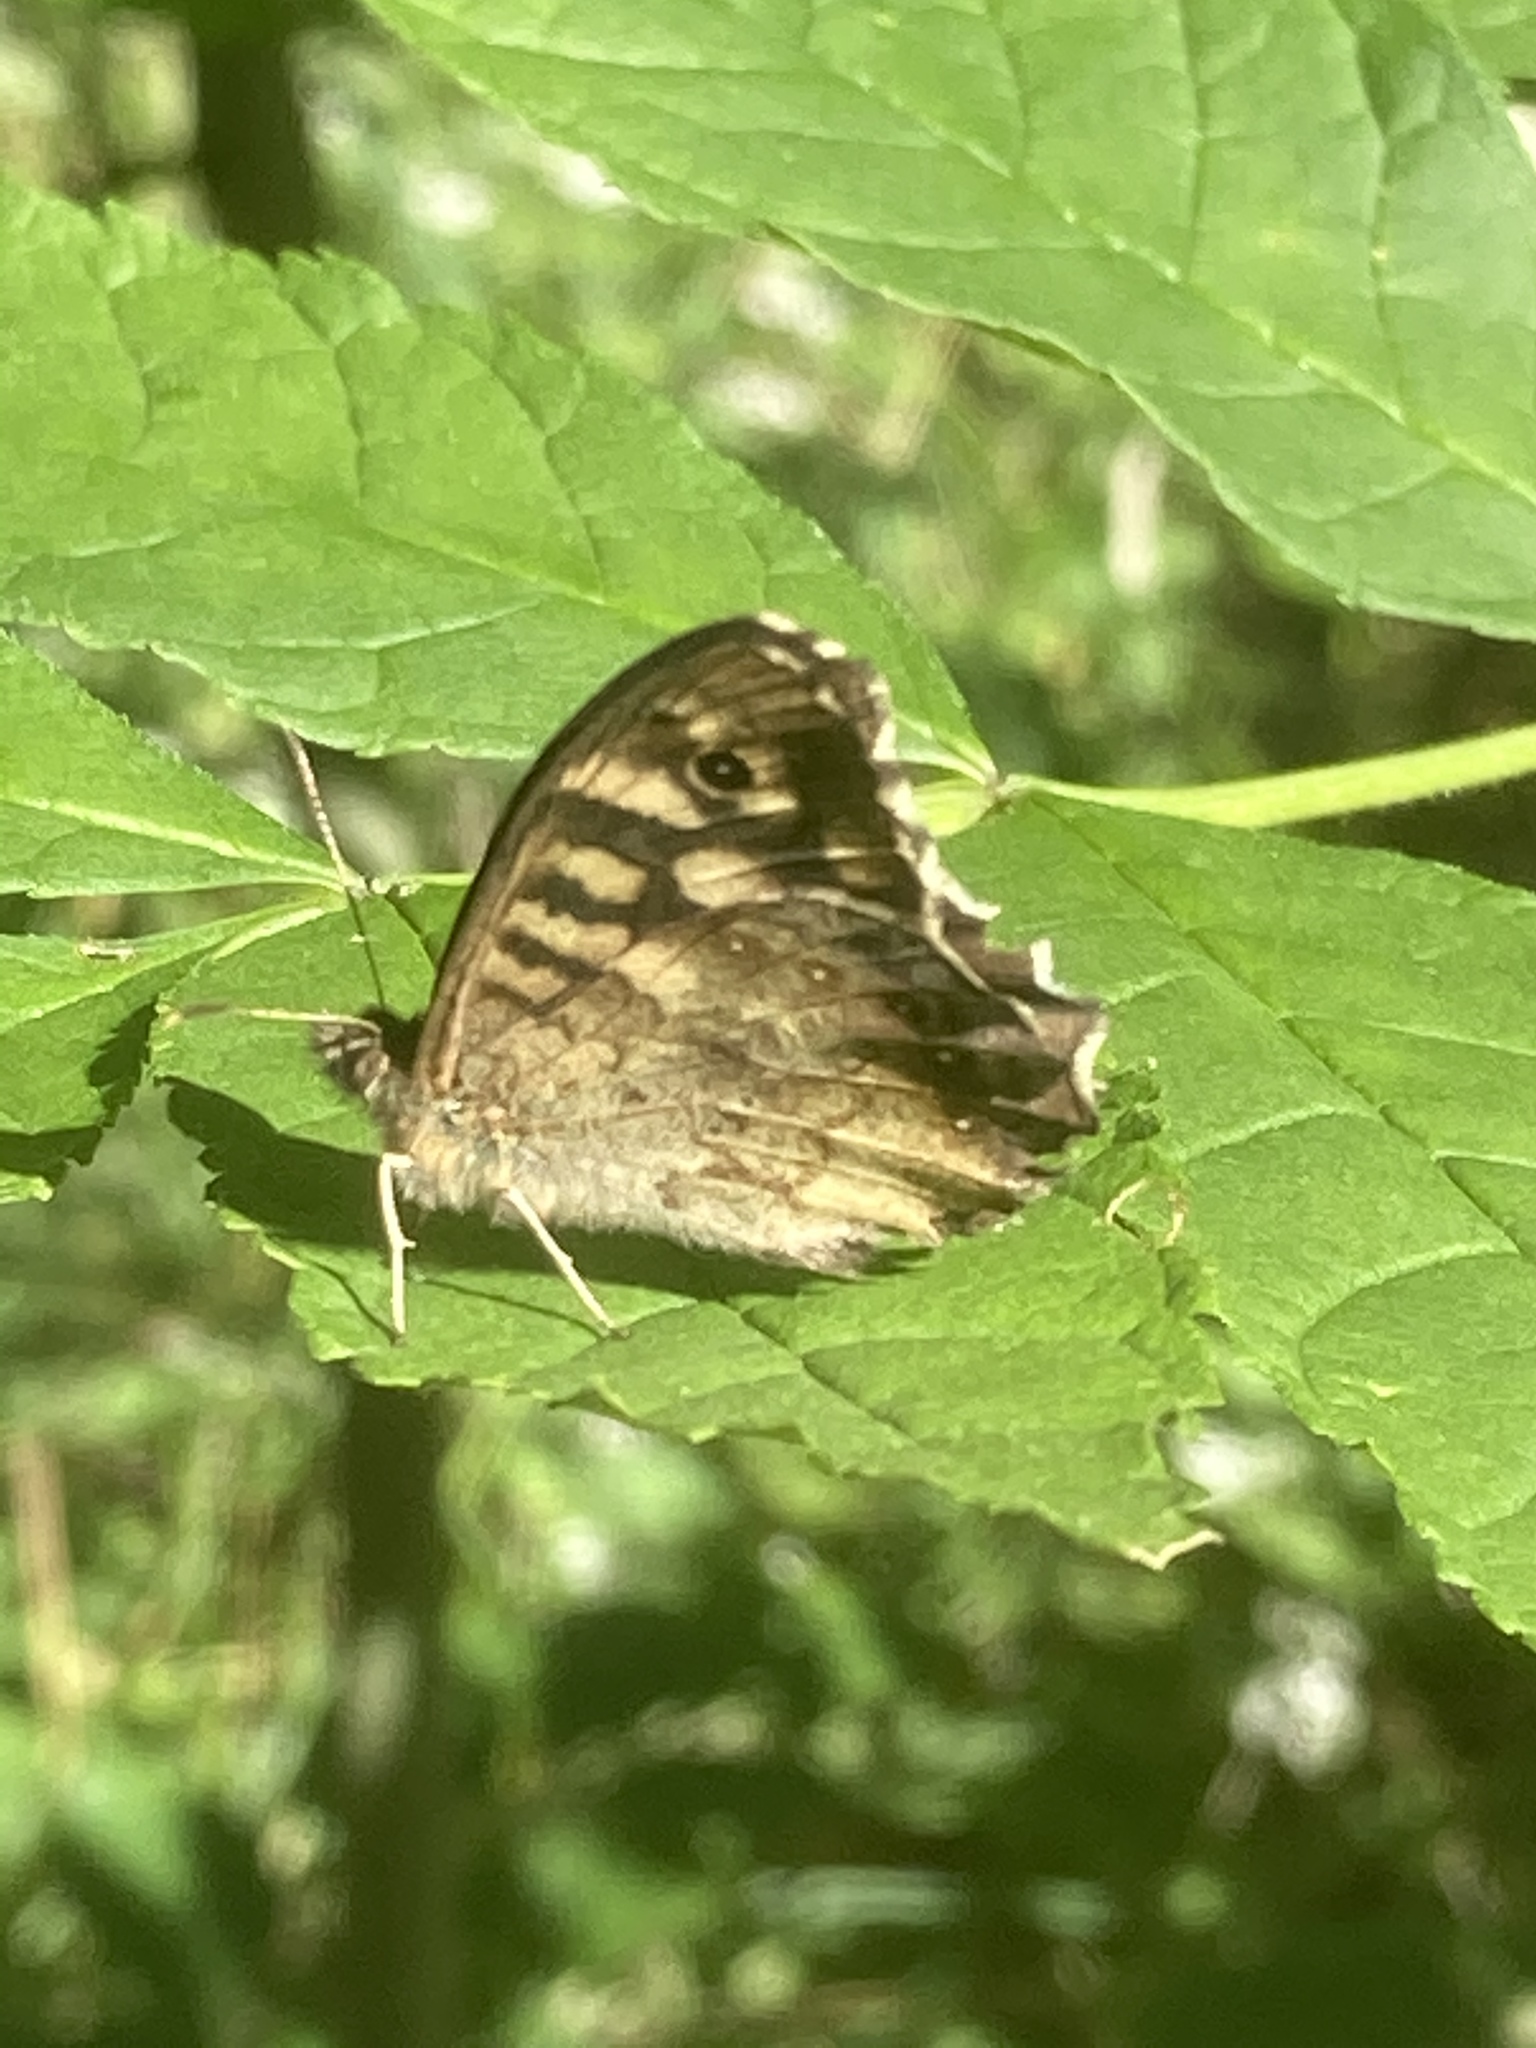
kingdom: Animalia
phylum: Arthropoda
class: Insecta
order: Lepidoptera
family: Nymphalidae
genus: Pararge
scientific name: Pararge aegeria
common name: Speckled wood
